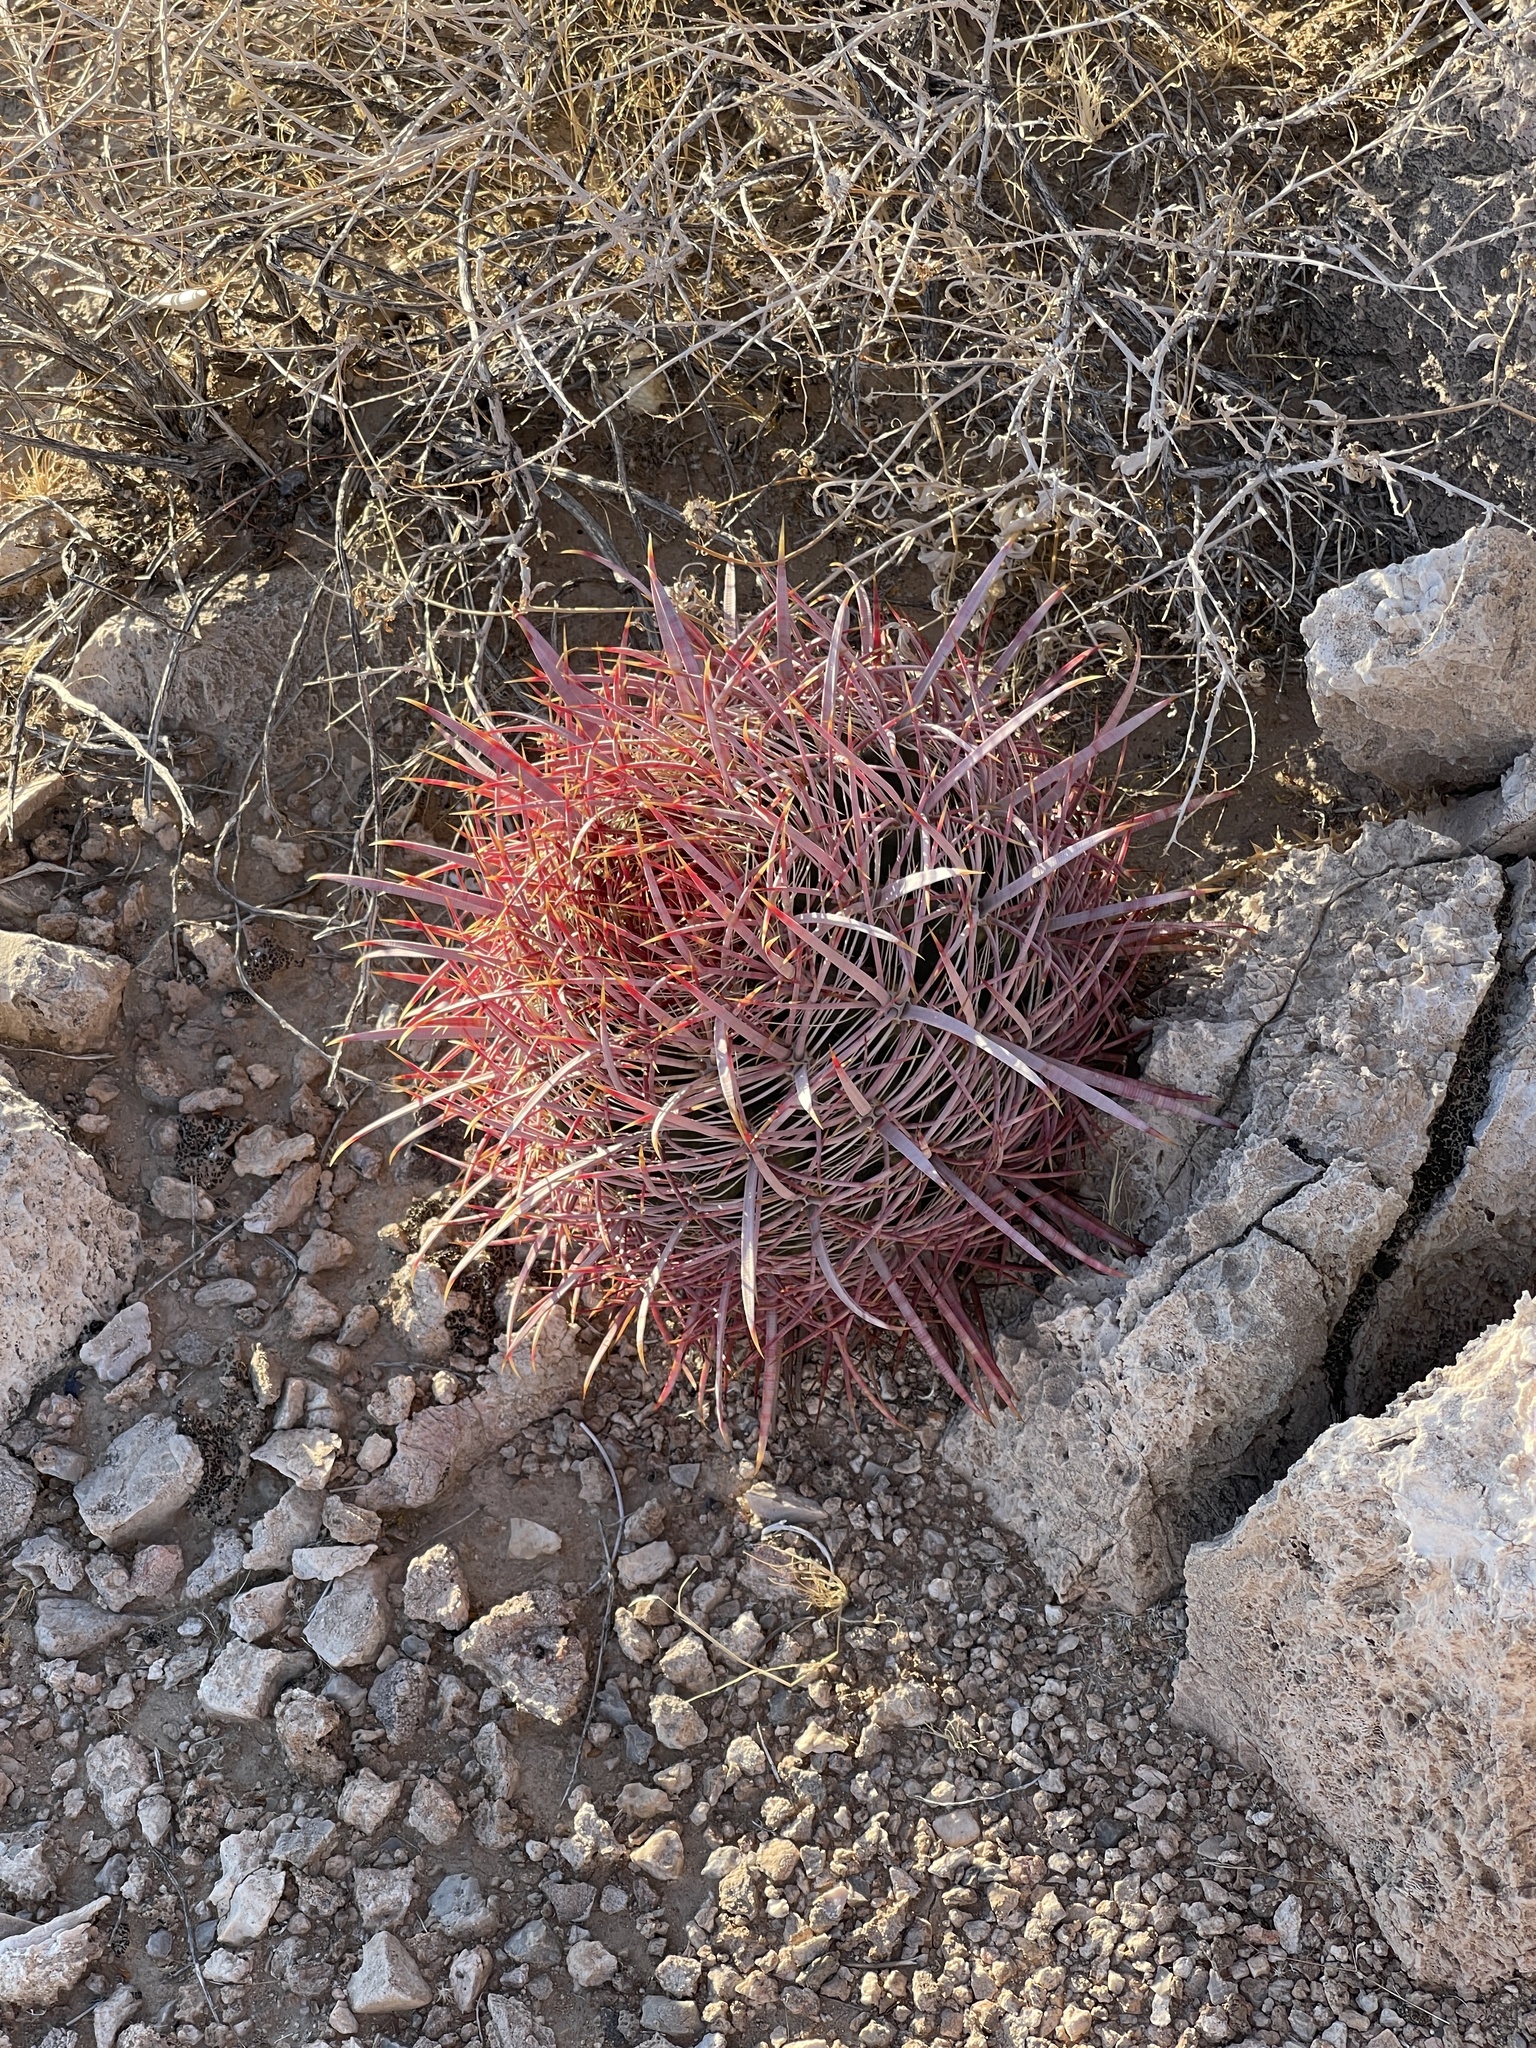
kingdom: Plantae
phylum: Tracheophyta
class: Magnoliopsida
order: Caryophyllales
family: Cactaceae
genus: Ferocactus
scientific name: Ferocactus cylindraceus
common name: California barrel cactus
